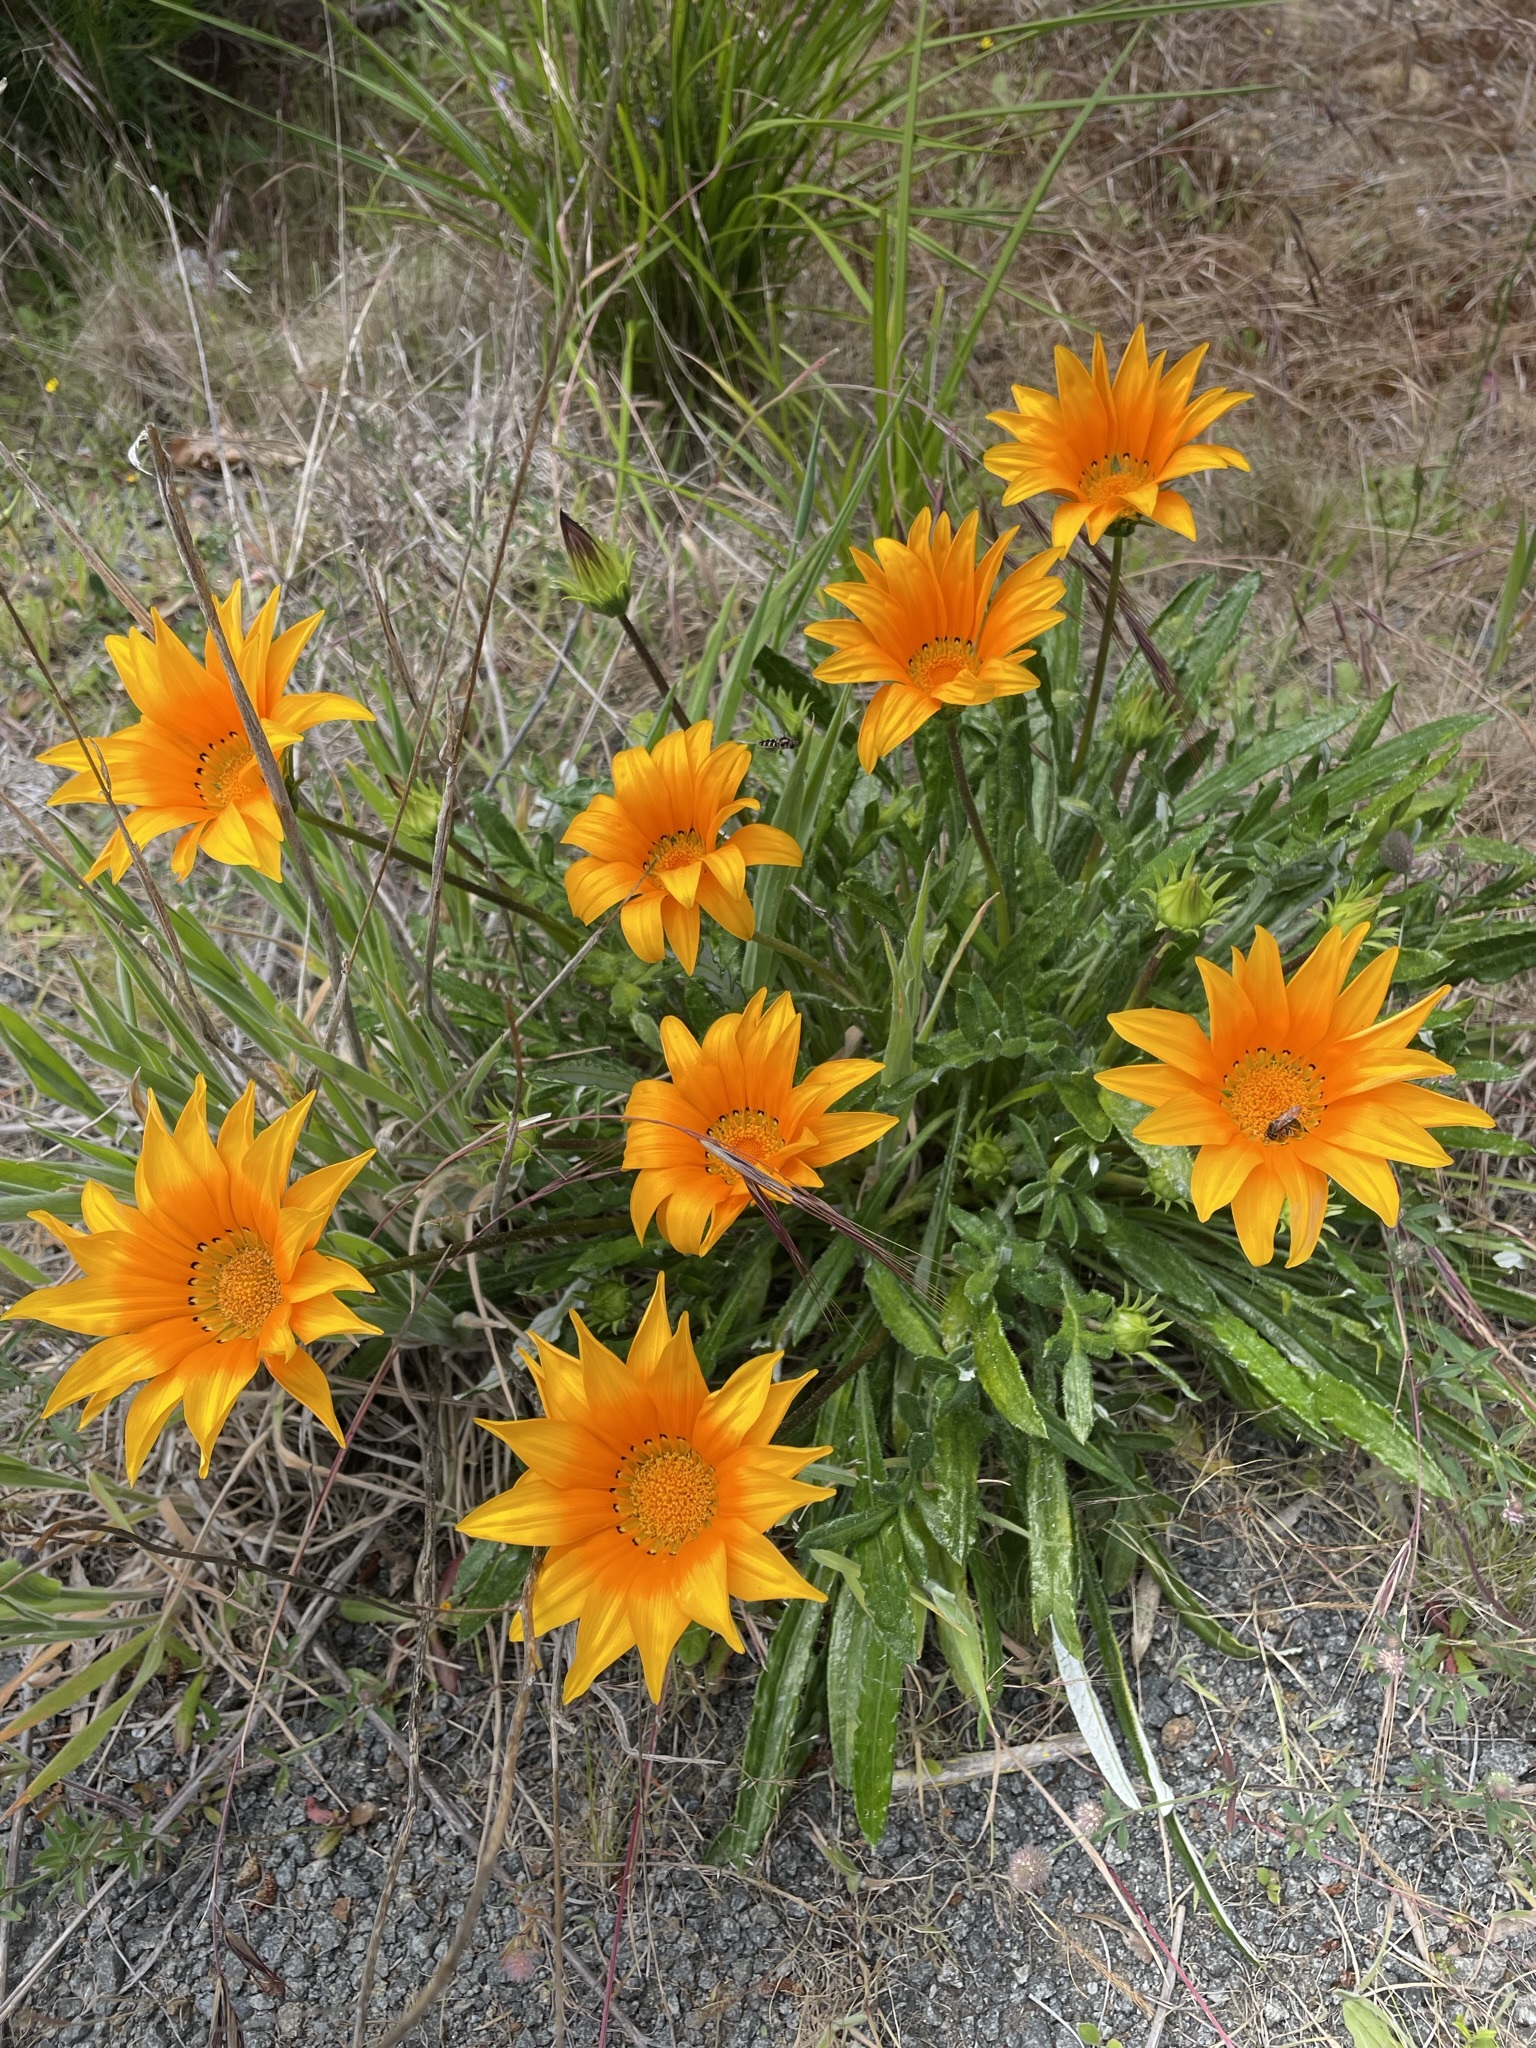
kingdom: Plantae
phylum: Tracheophyta
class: Magnoliopsida
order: Asterales
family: Asteraceae
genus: Gazania
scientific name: Gazania splendens
